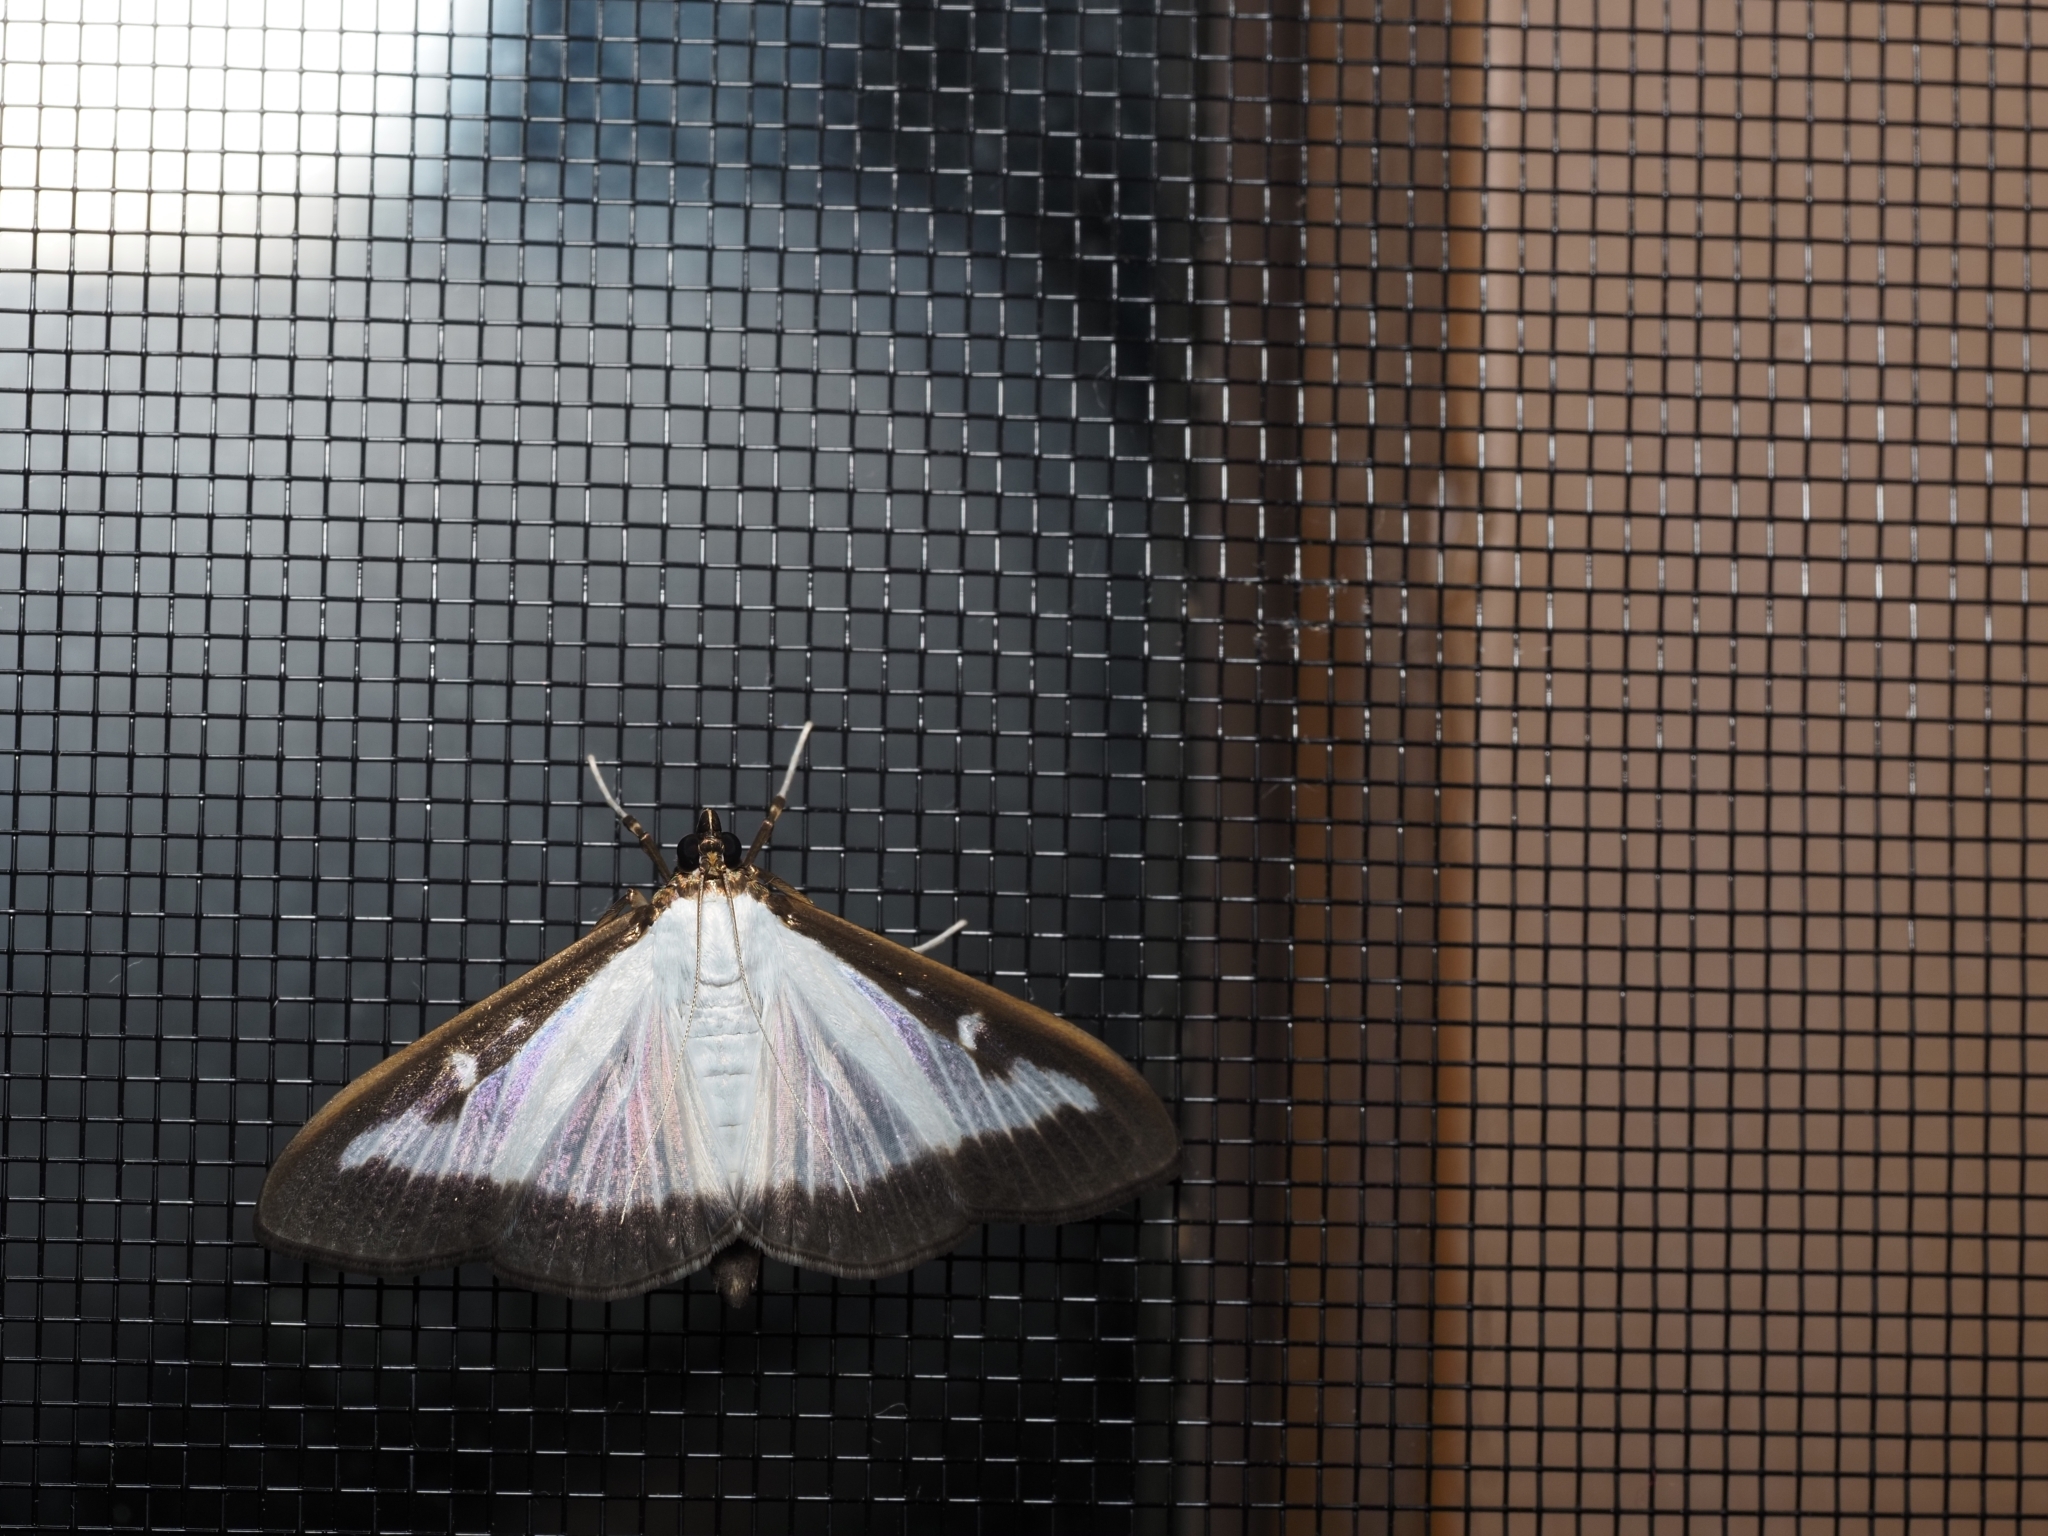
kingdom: Animalia
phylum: Arthropoda
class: Insecta
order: Lepidoptera
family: Crambidae
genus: Cydalima
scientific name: Cydalima perspectalis
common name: Box tree moth
